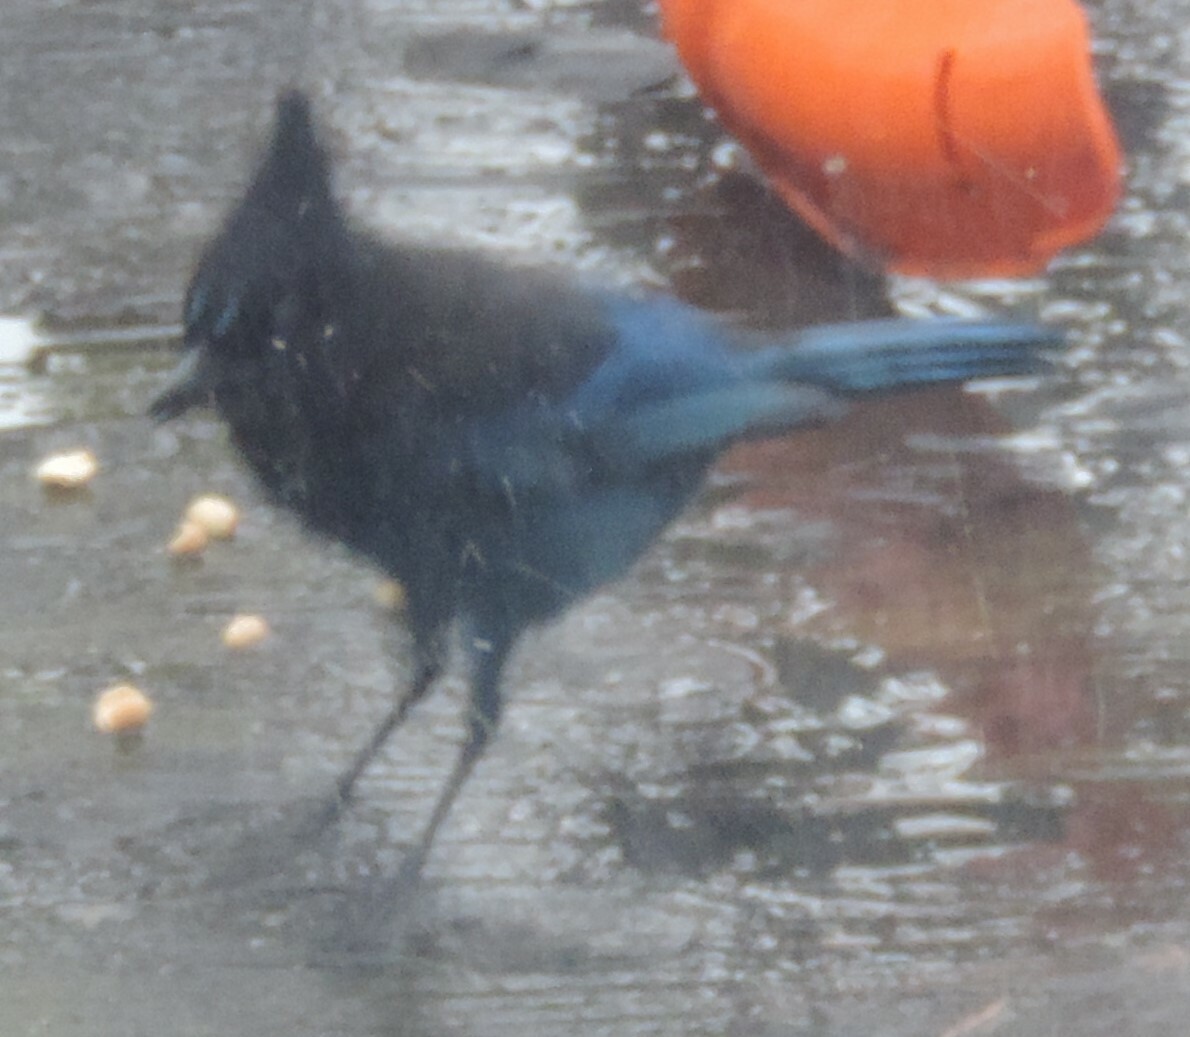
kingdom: Animalia
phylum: Chordata
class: Aves
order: Passeriformes
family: Corvidae
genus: Cyanocitta
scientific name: Cyanocitta stelleri
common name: Steller's jay
